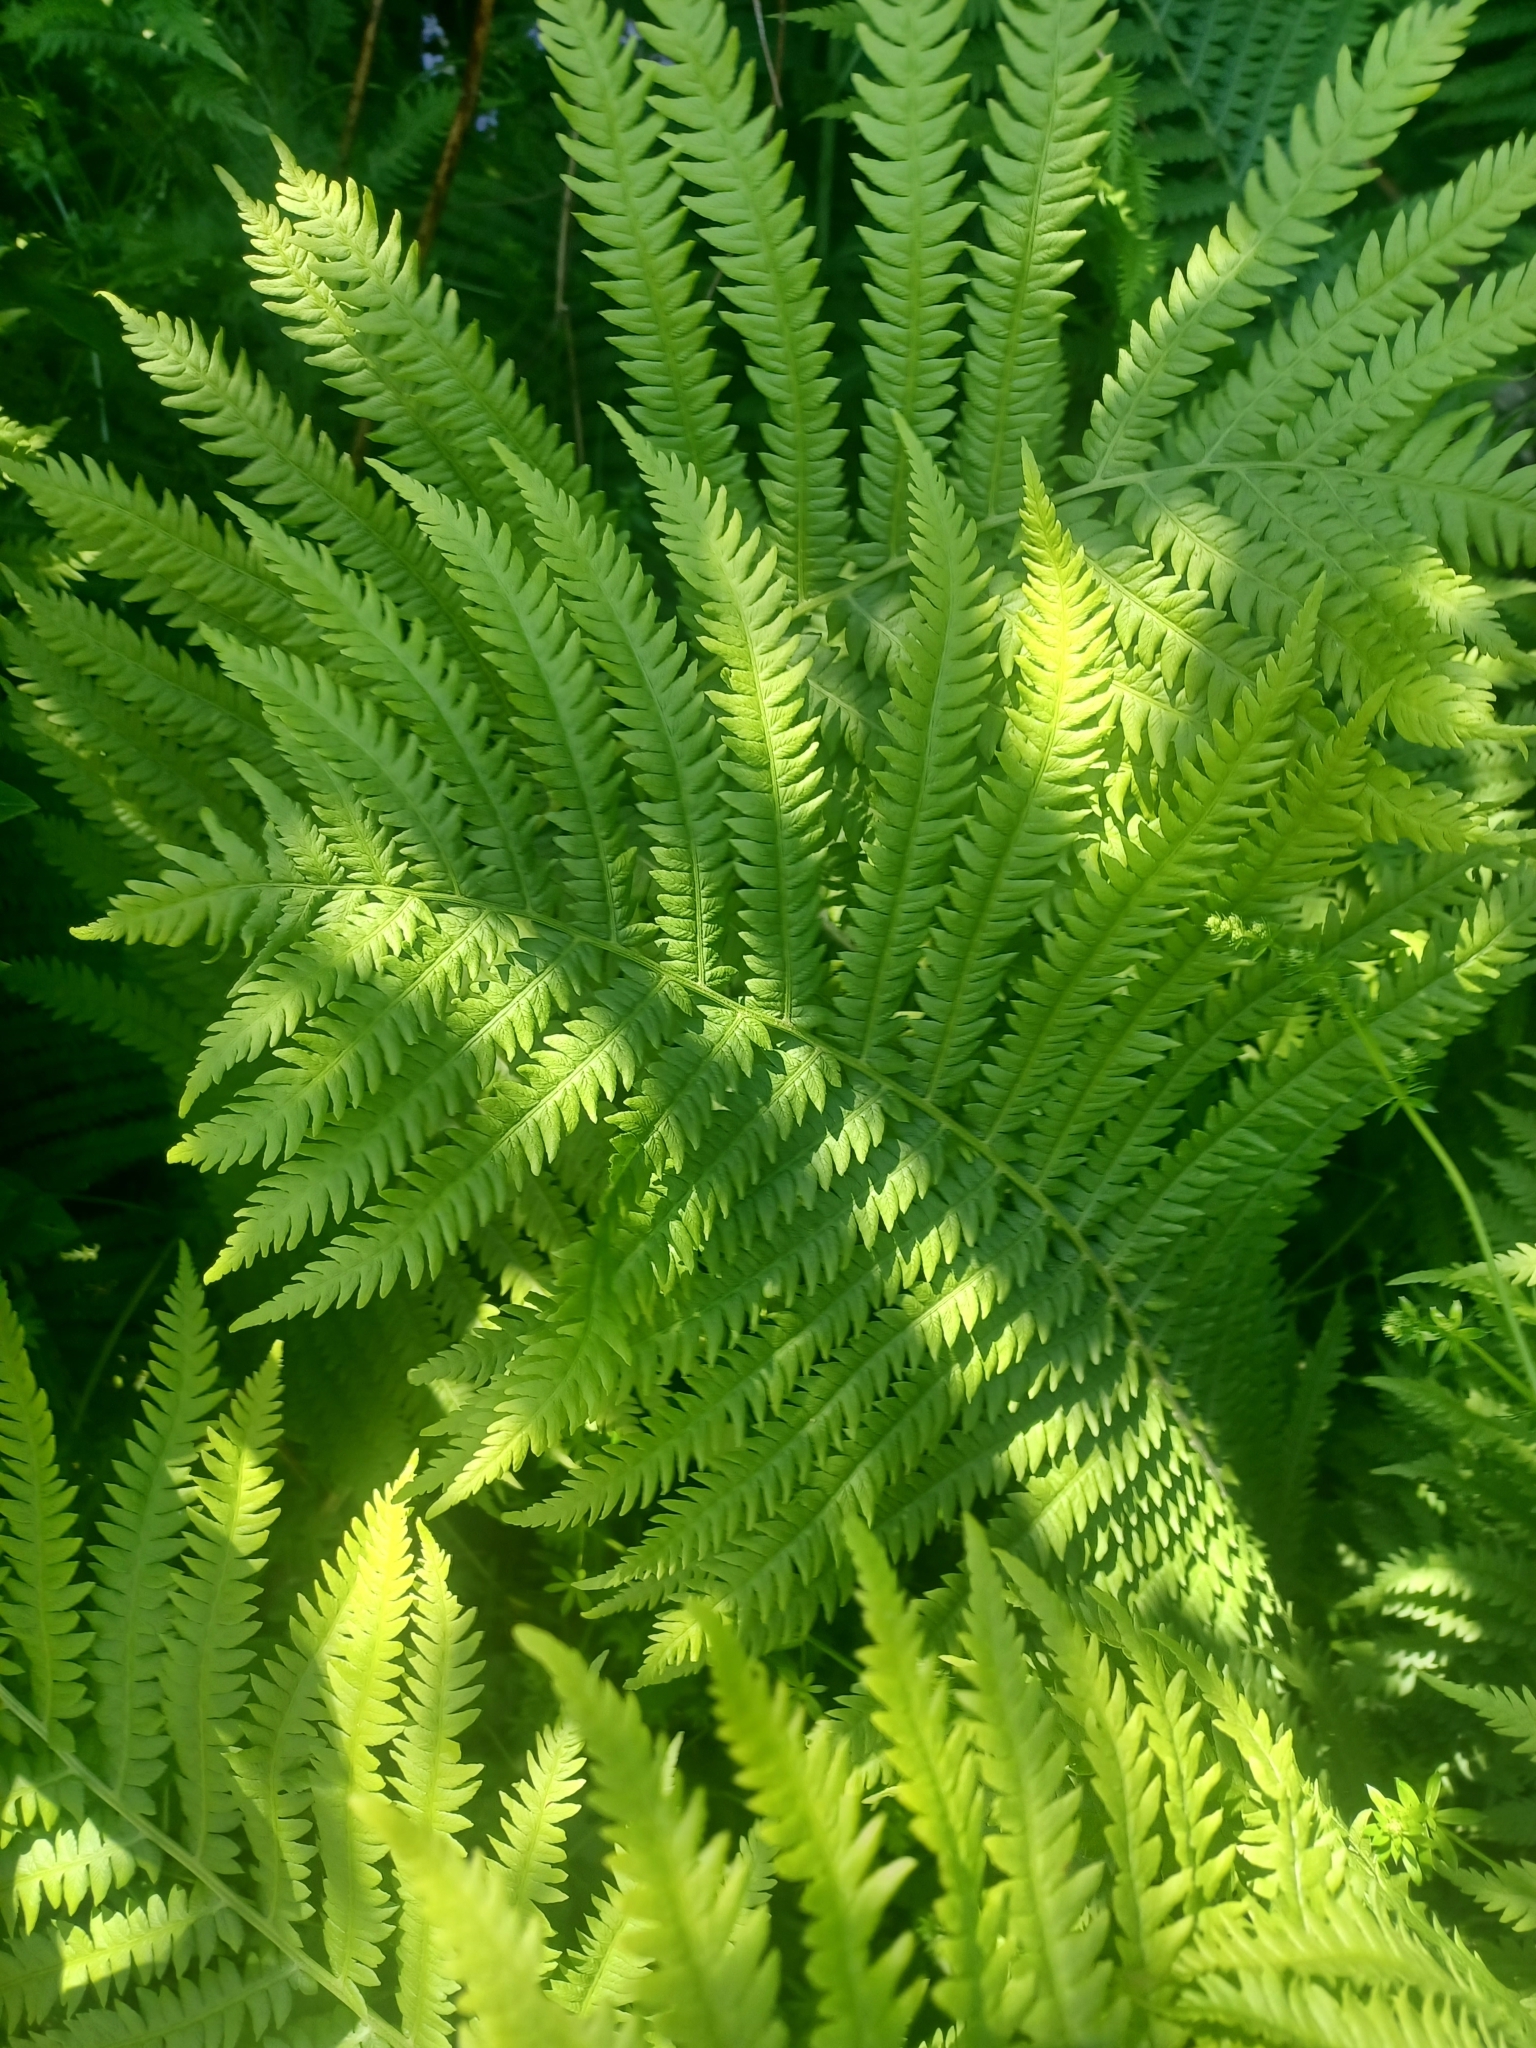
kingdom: Plantae
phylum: Tracheophyta
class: Polypodiopsida
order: Polypodiales
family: Onocleaceae
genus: Matteuccia
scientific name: Matteuccia struthiopteris
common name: Ostrich fern
